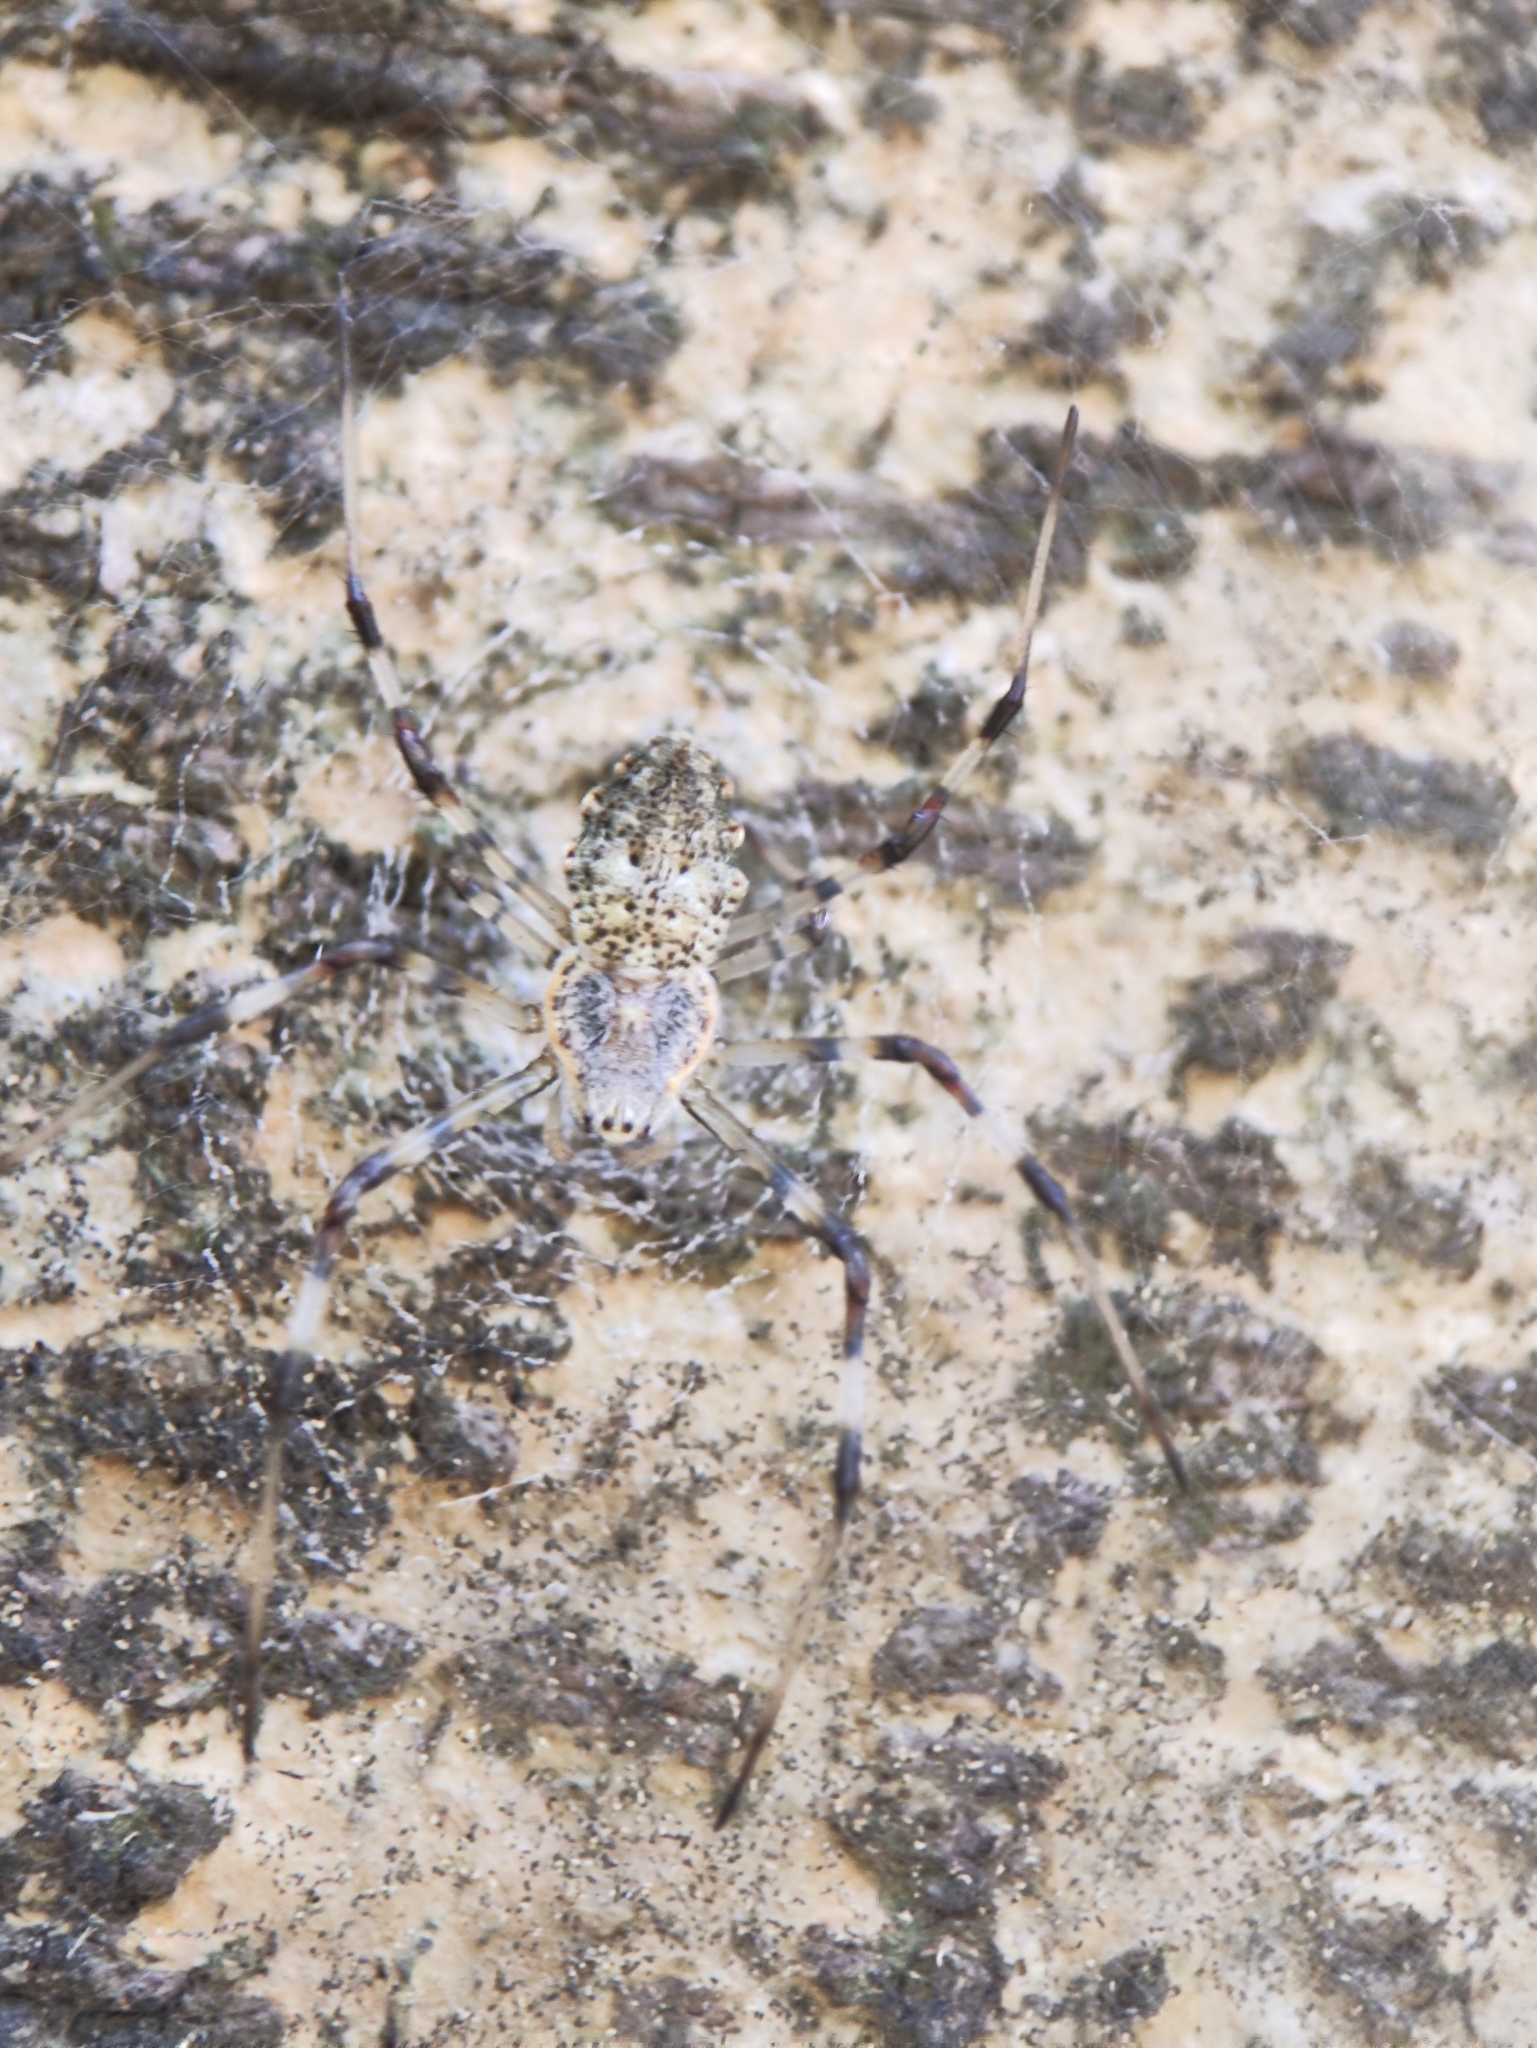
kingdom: Animalia
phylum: Arthropoda
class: Arachnida
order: Araneae
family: Araneidae
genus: Herennia
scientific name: Herennia multipuncta
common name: Spotted coin spider
